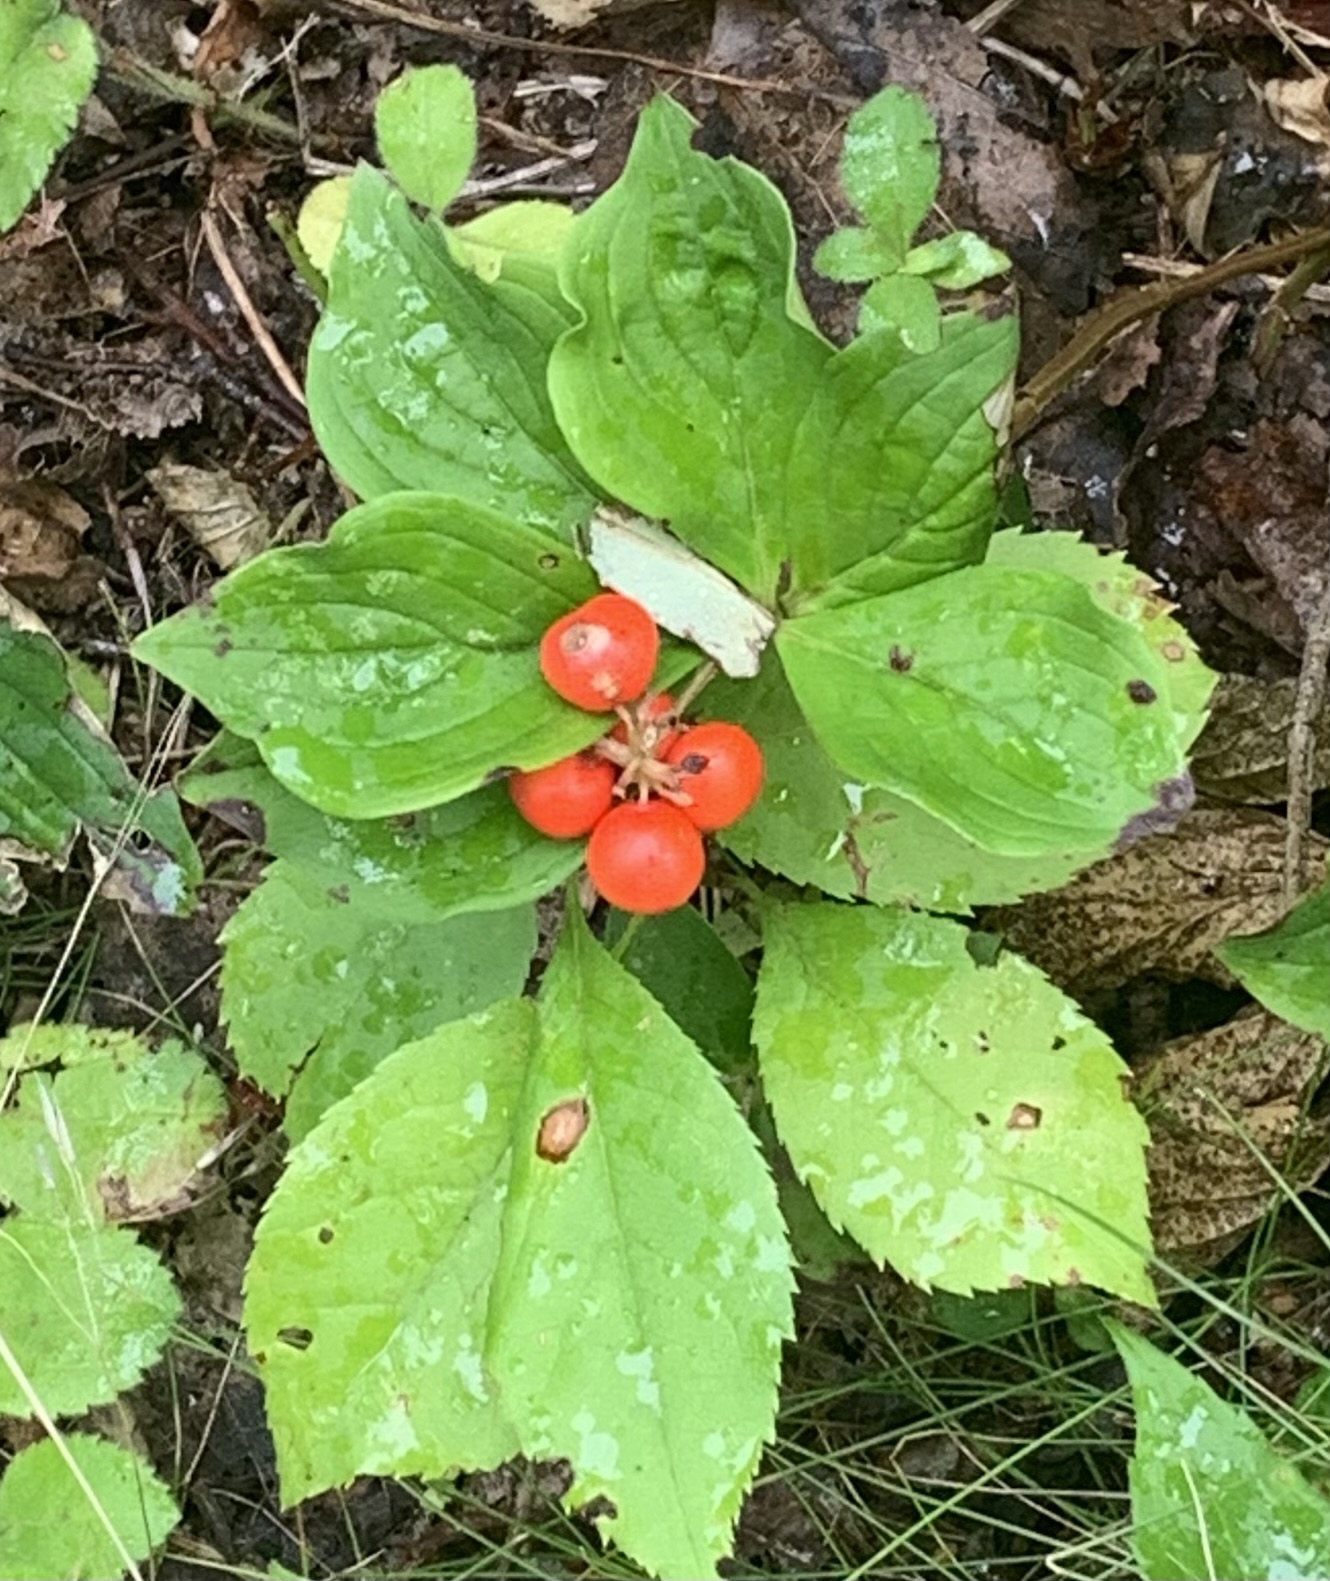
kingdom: Plantae
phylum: Tracheophyta
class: Magnoliopsida
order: Cornales
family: Cornaceae
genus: Cornus
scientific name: Cornus canadensis
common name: Creeping dogwood
